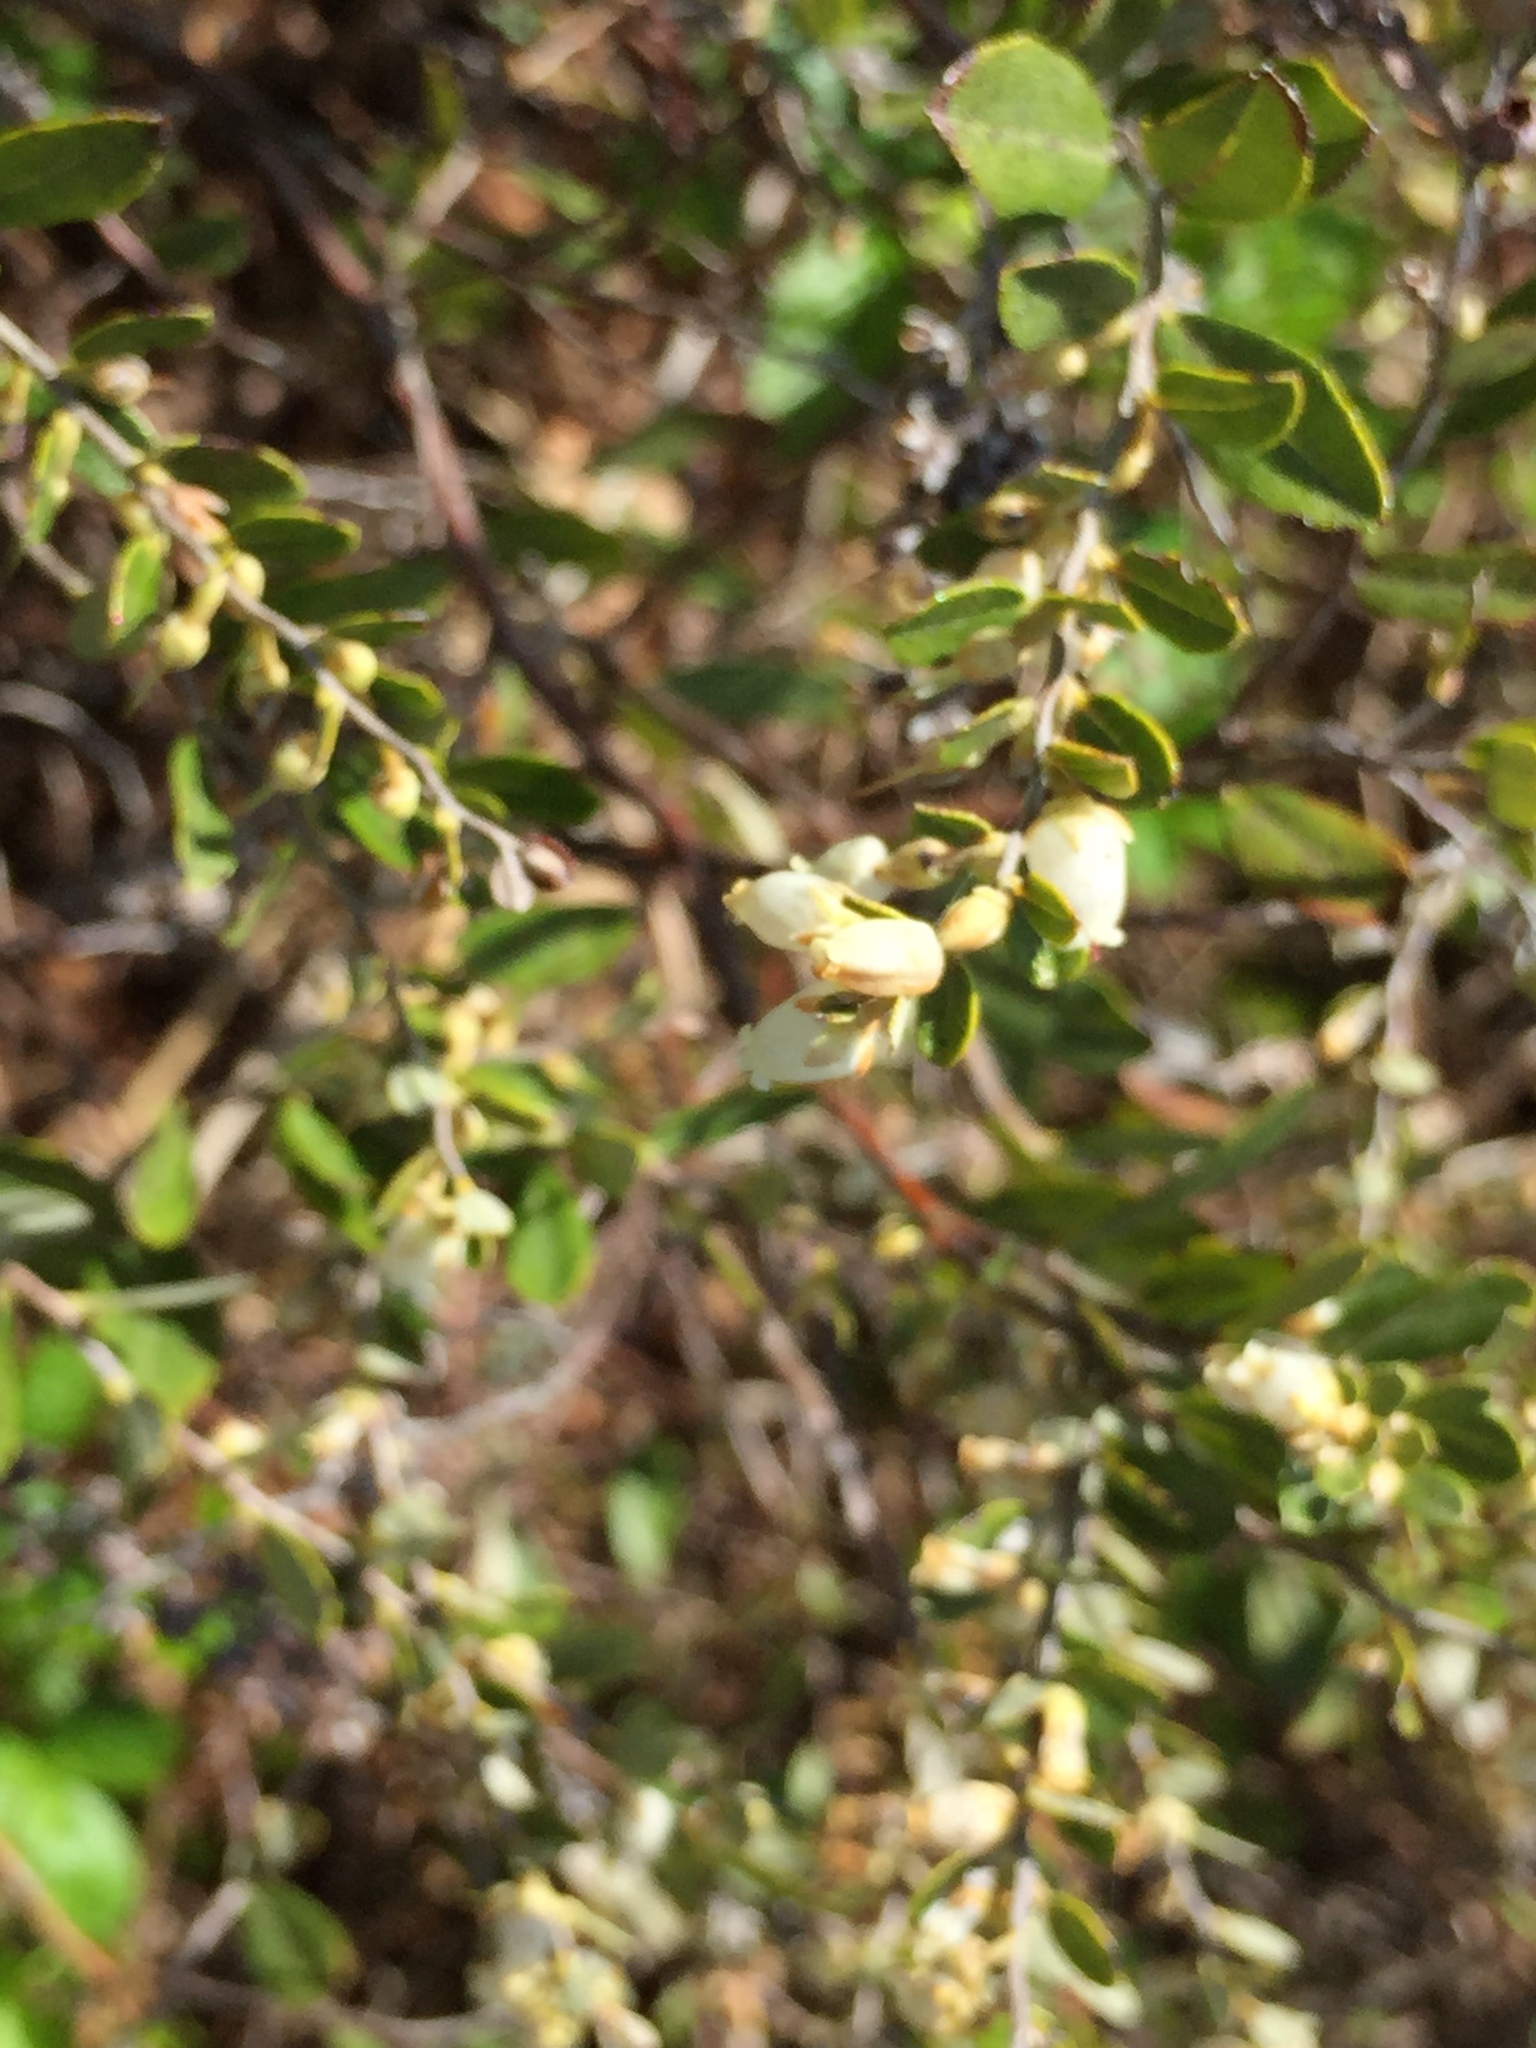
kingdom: Plantae
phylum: Tracheophyta
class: Magnoliopsida
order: Ericales
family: Ericaceae
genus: Chamaedaphne
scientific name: Chamaedaphne calyculata
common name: Leatherleaf
